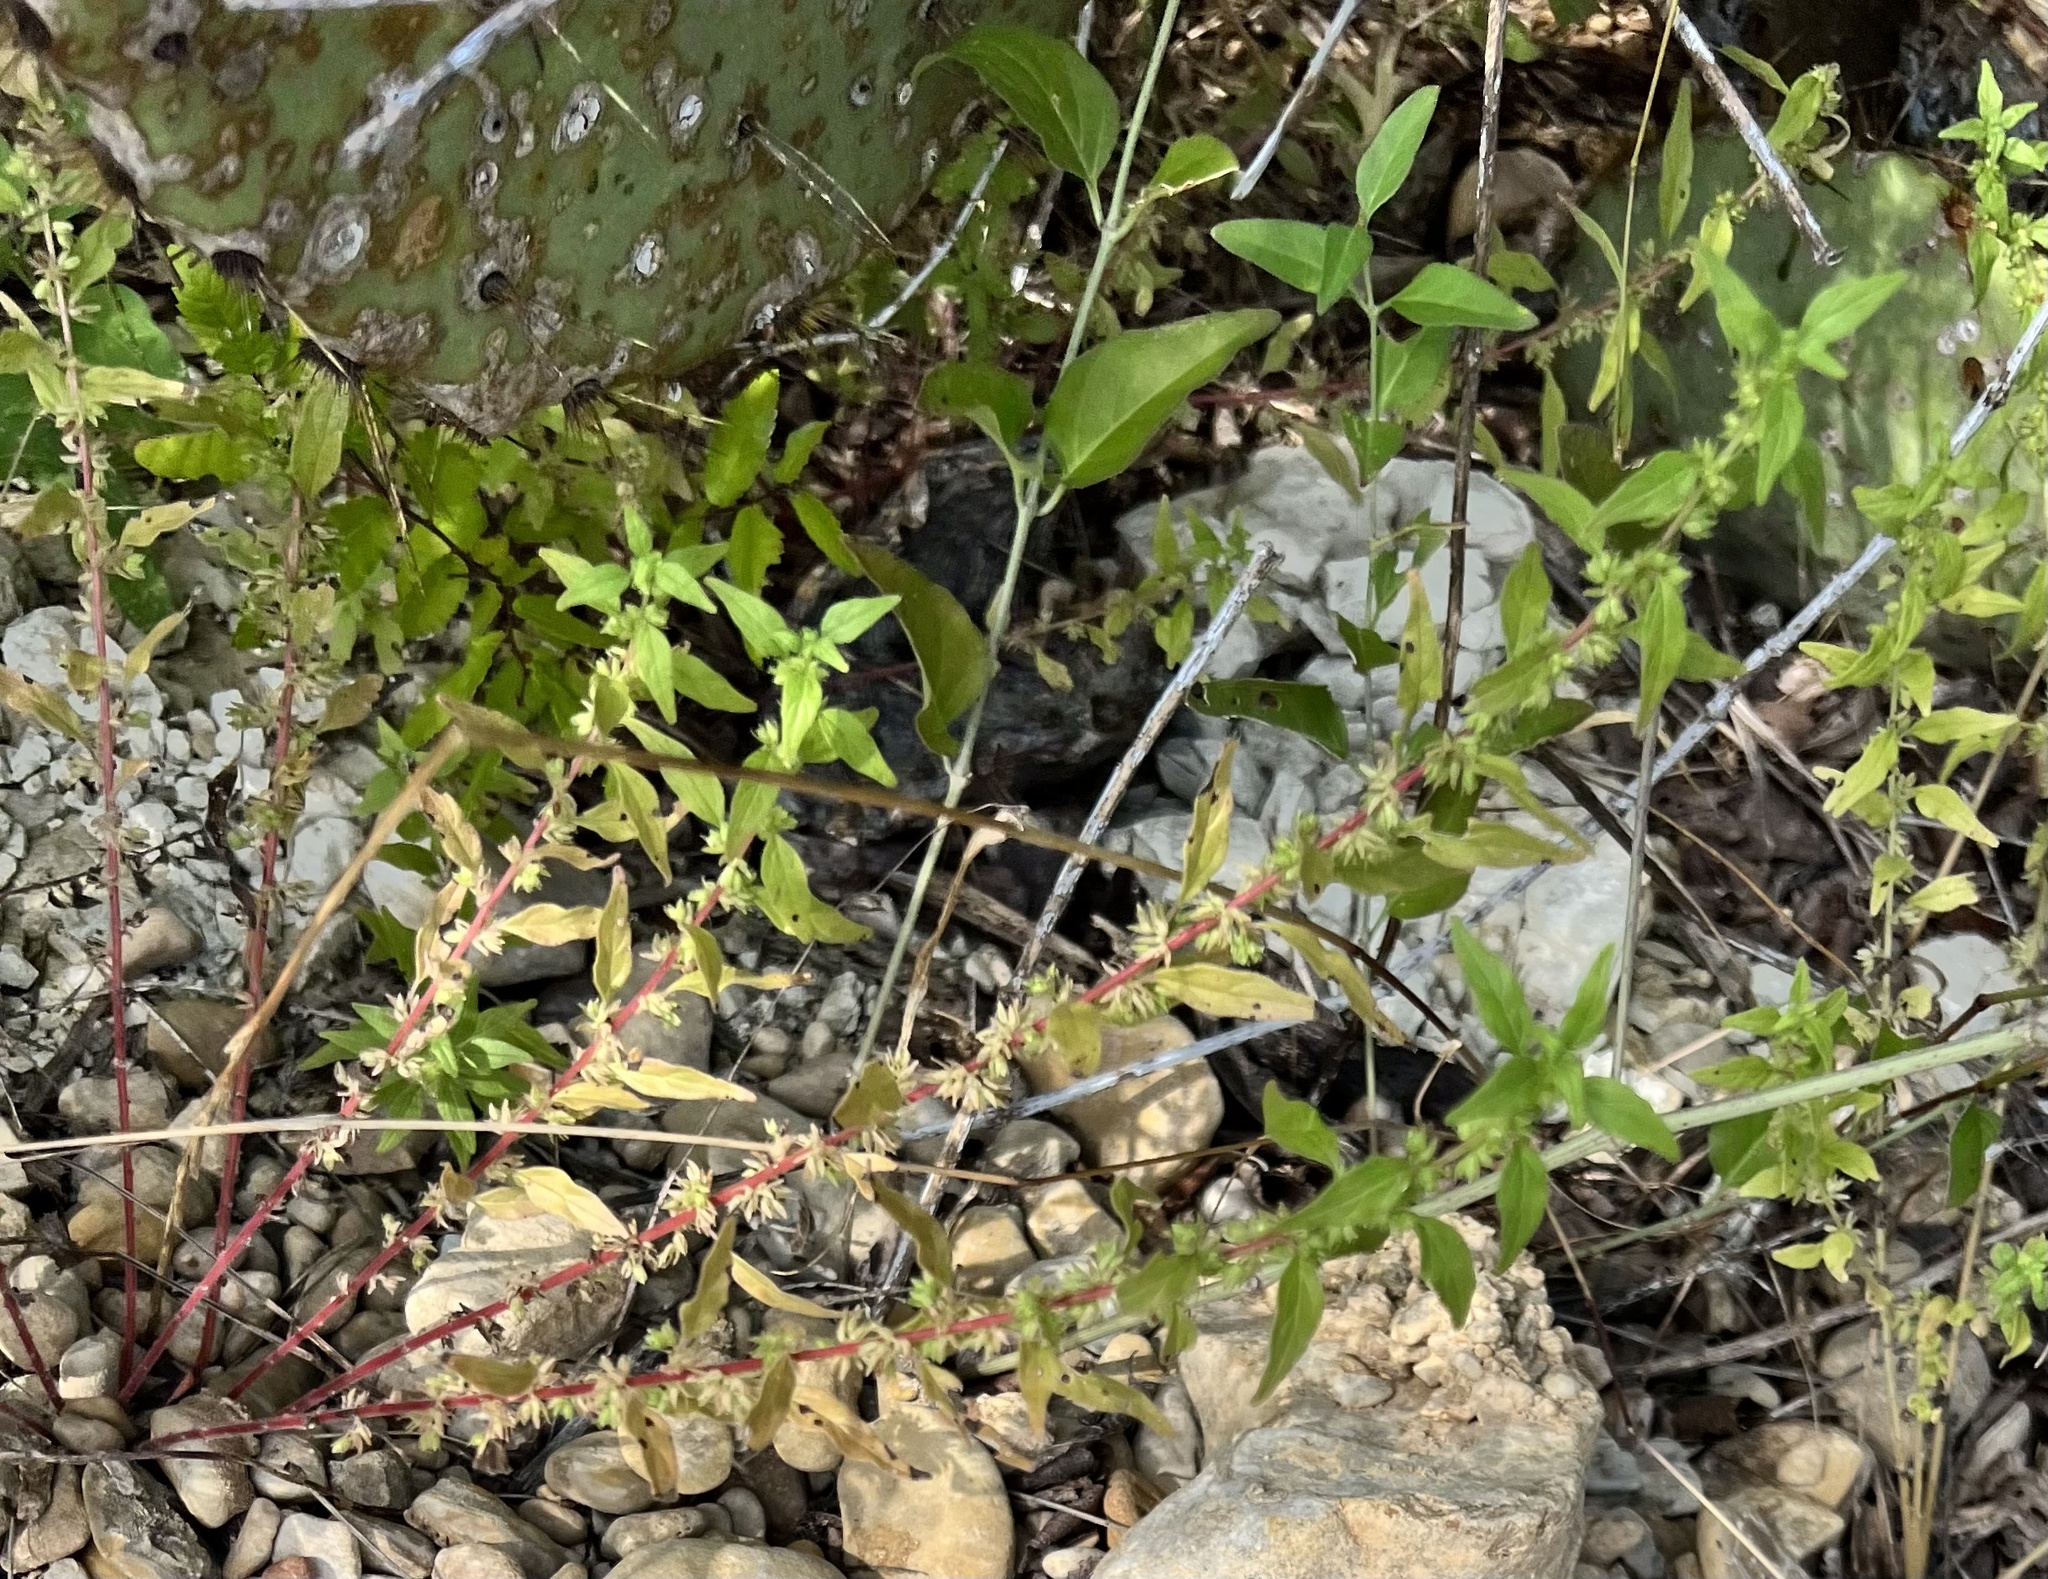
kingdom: Plantae
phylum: Tracheophyta
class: Magnoliopsida
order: Rosales
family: Urticaceae
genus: Parietaria
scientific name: Parietaria pensylvanica
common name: Pennsylvania pellitory
